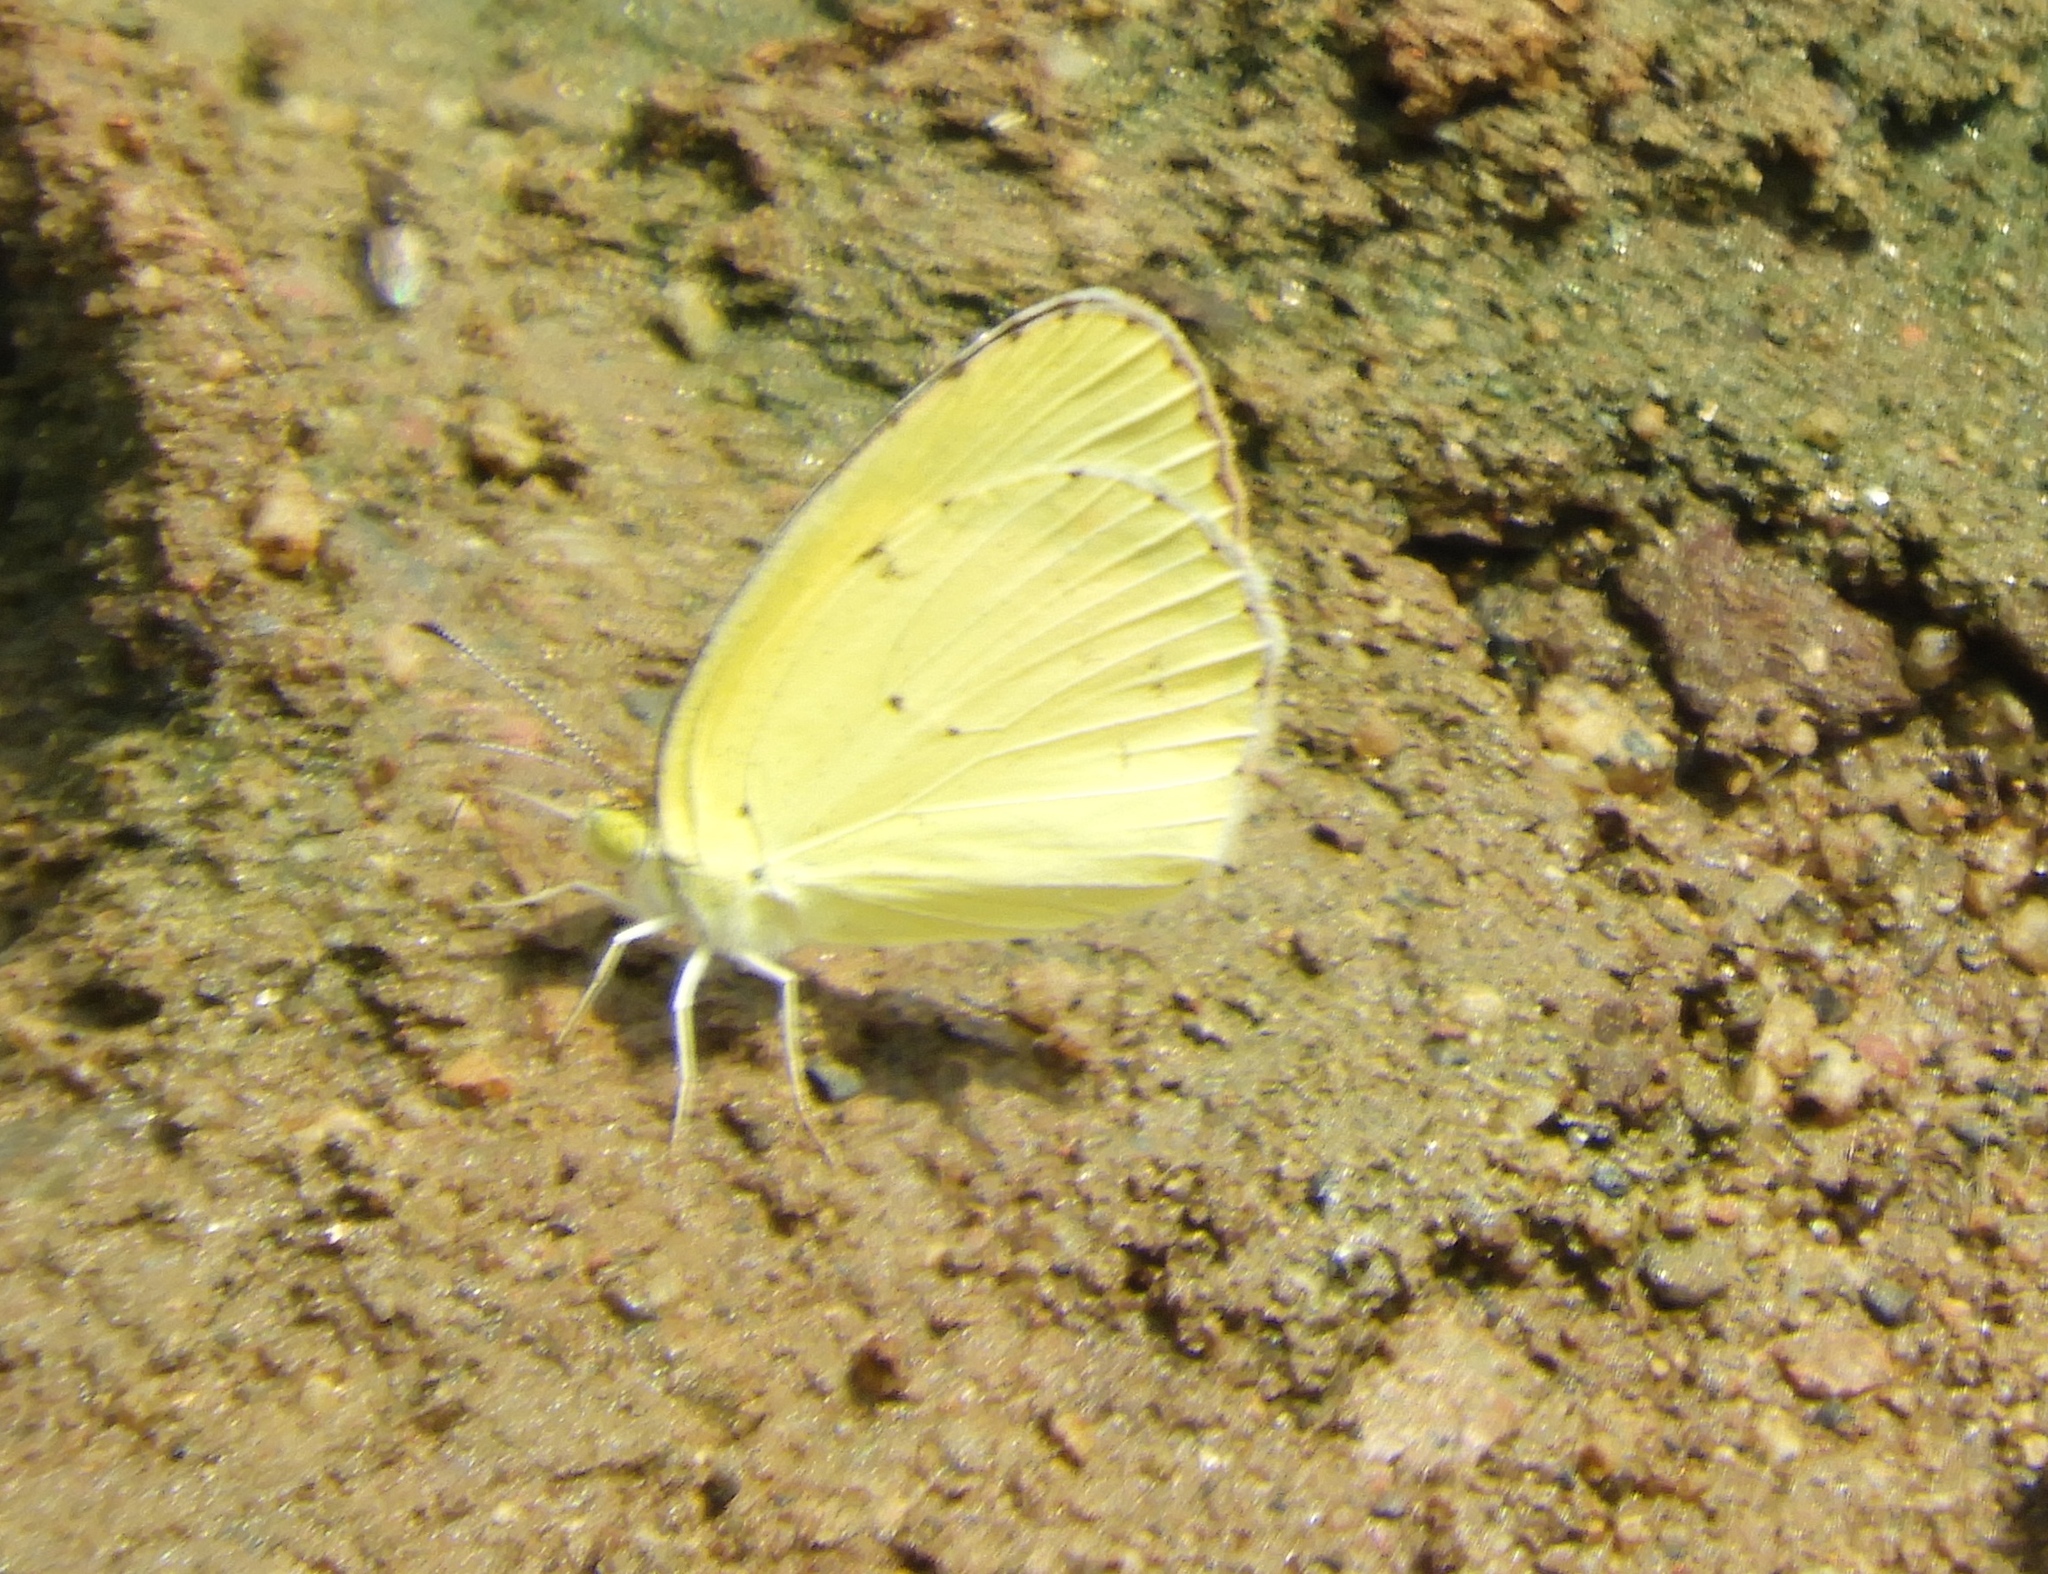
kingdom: Animalia
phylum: Arthropoda
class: Insecta
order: Lepidoptera
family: Pieridae
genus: Pyrisitia
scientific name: Pyrisitia
